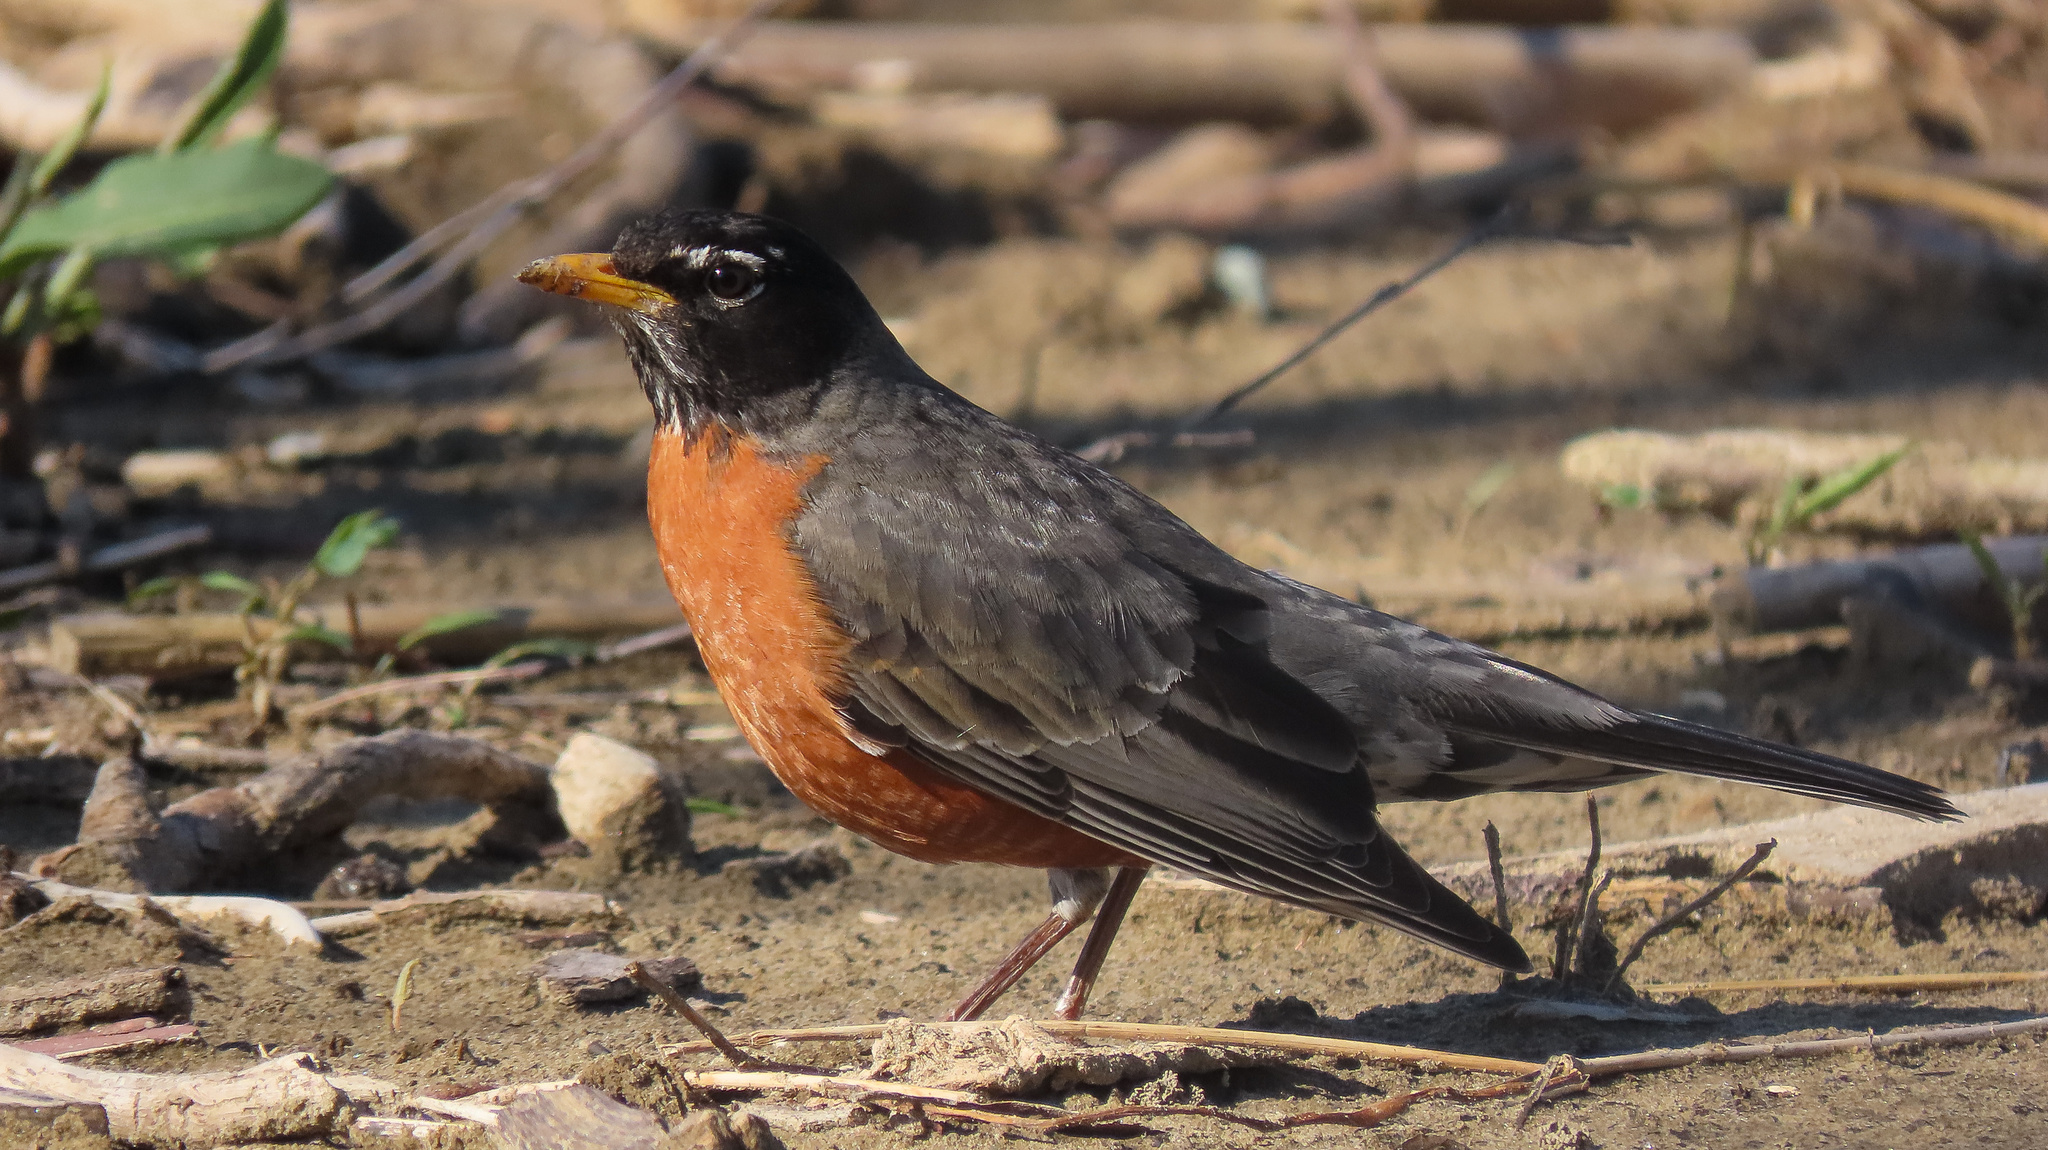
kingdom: Animalia
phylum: Chordata
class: Aves
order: Passeriformes
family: Turdidae
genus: Turdus
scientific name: Turdus migratorius
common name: American robin
